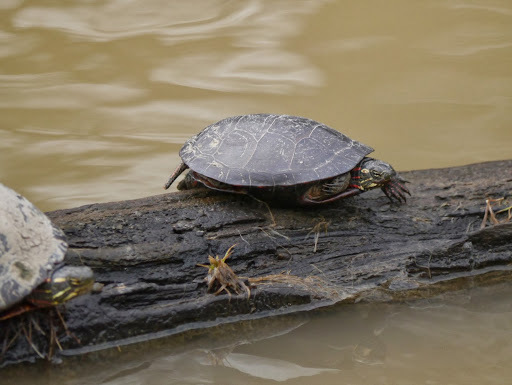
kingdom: Animalia
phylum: Chordata
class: Testudines
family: Emydidae
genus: Chrysemys
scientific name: Chrysemys picta
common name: Painted turtle
